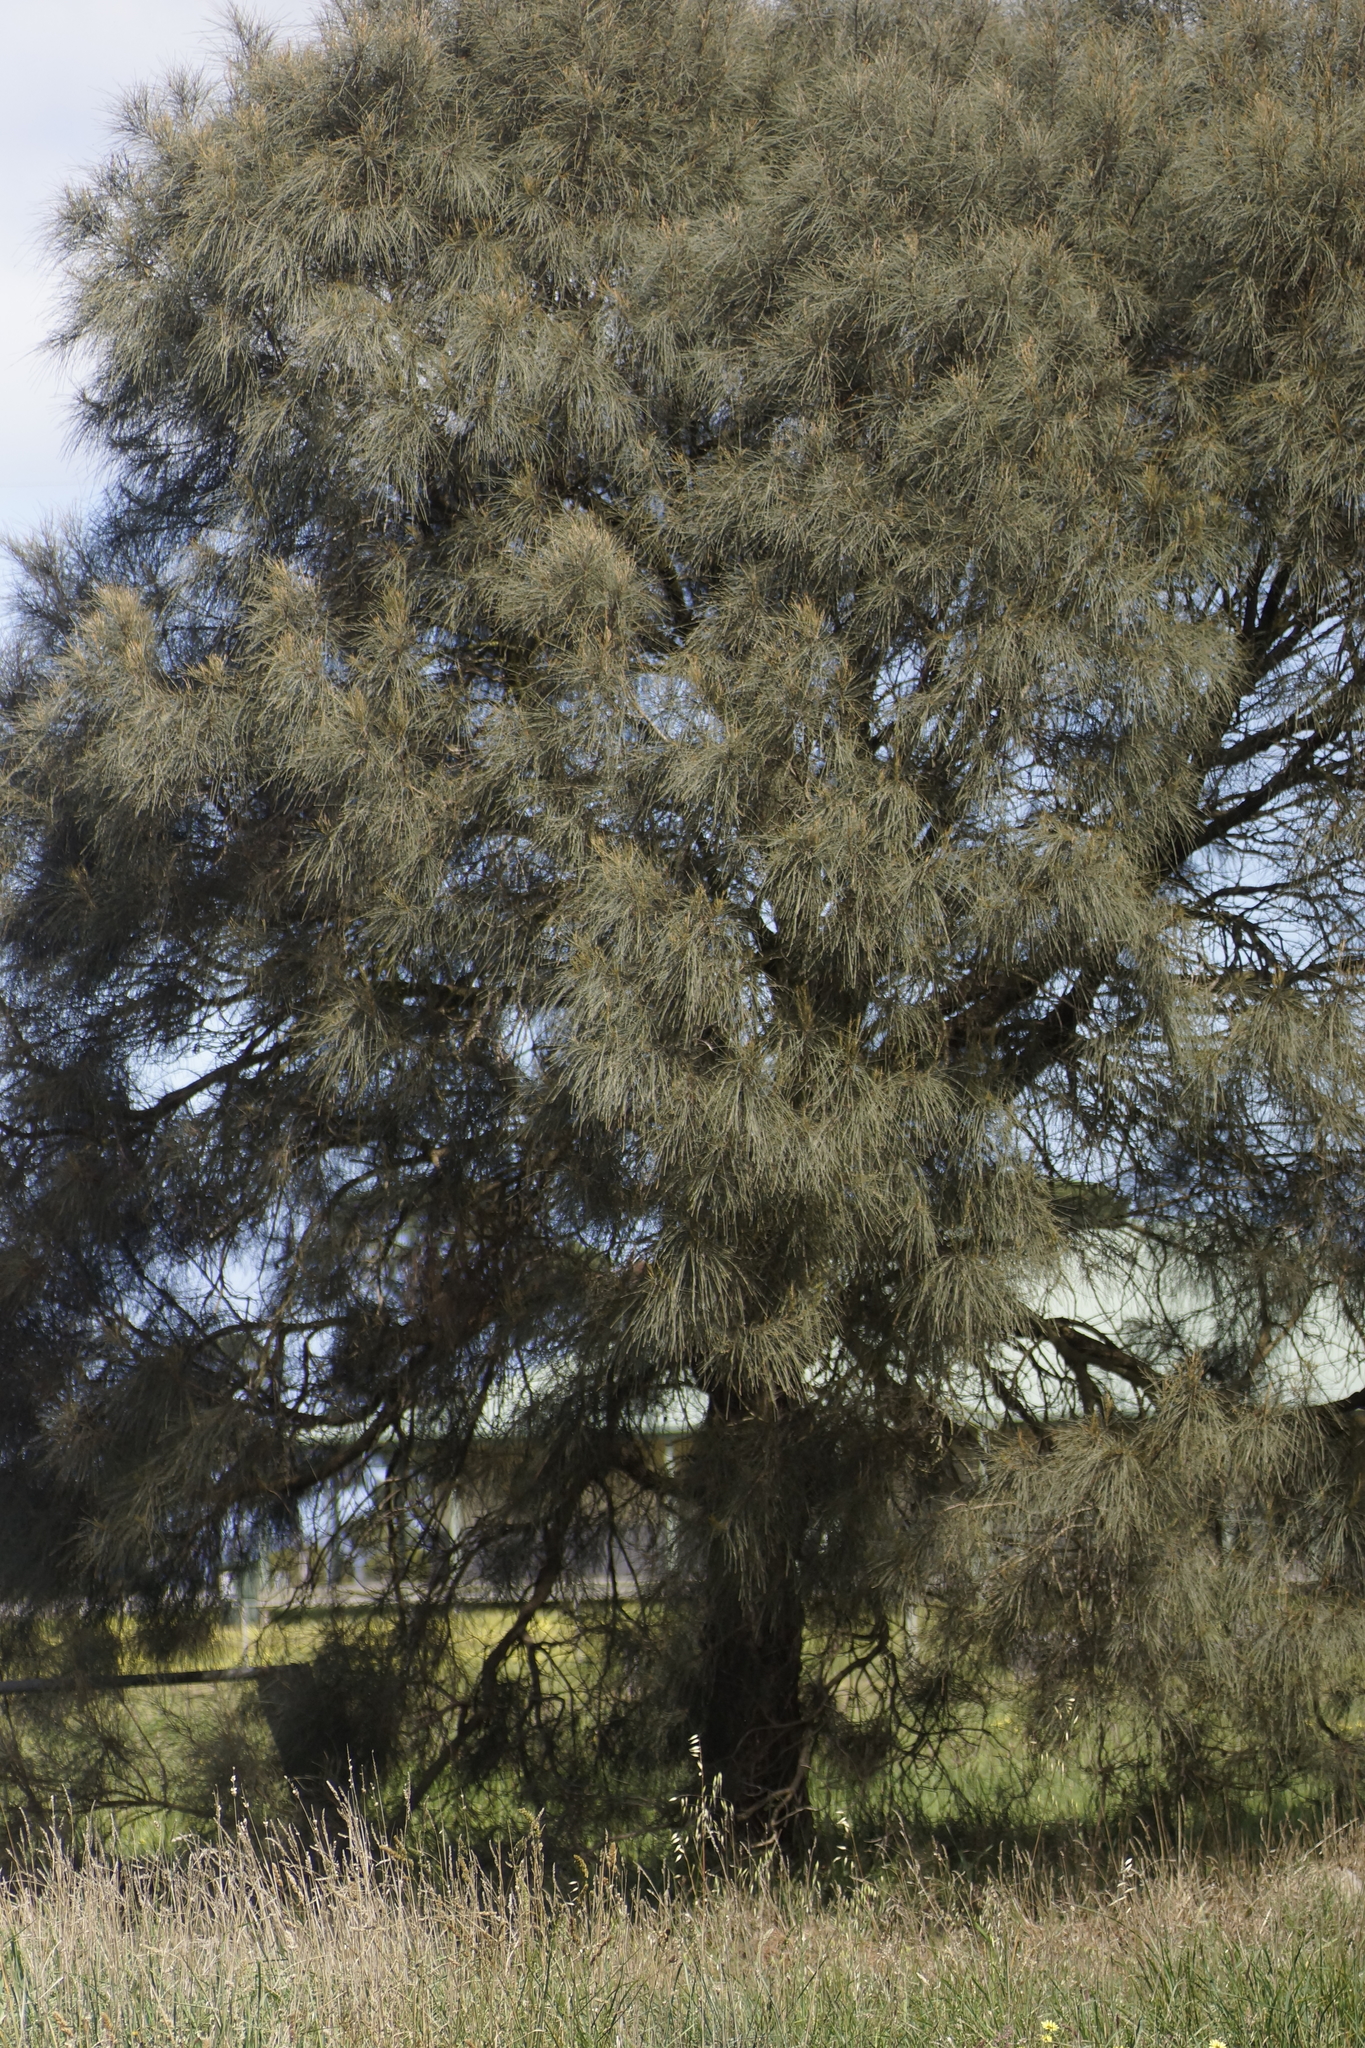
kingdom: Plantae
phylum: Tracheophyta
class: Magnoliopsida
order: Fagales
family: Casuarinaceae
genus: Allocasuarina
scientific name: Allocasuarina verticillata
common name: Drooping she-oak
